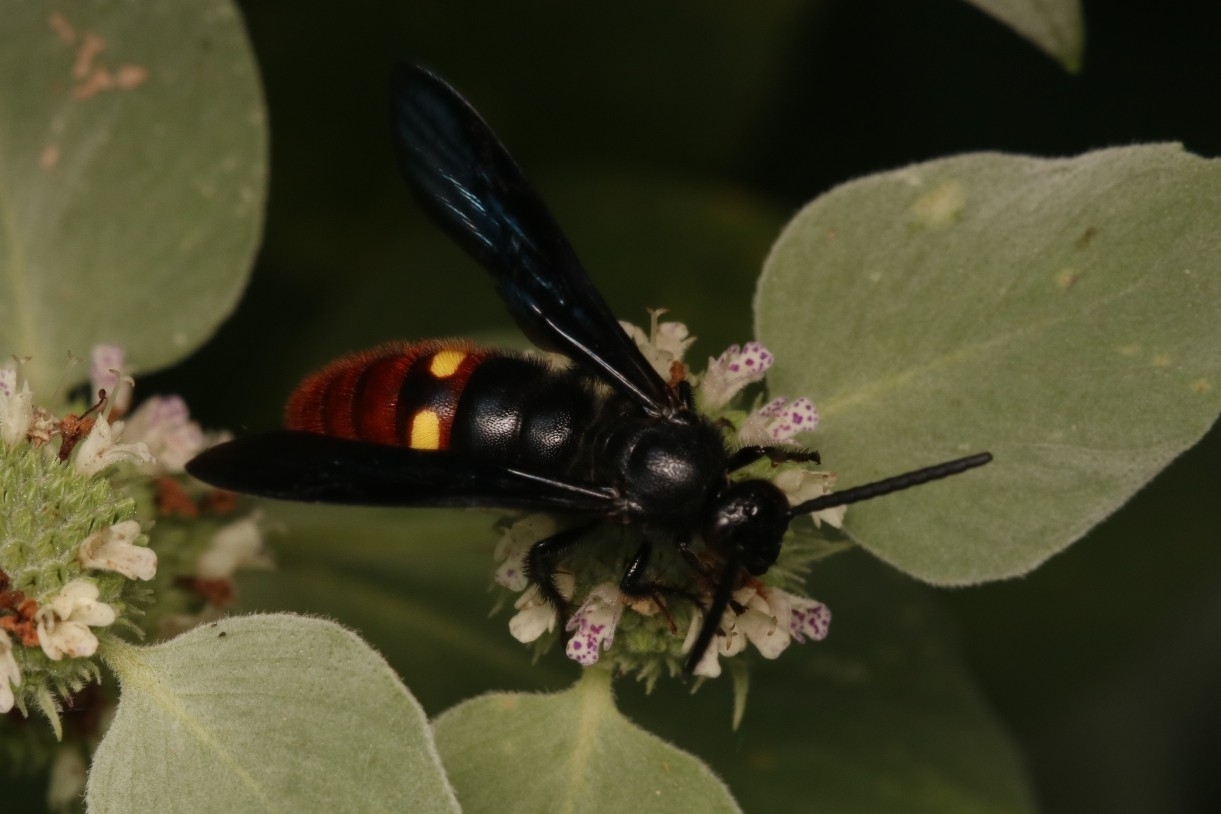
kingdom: Animalia
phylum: Arthropoda
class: Insecta
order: Hymenoptera
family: Scoliidae
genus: Scolia
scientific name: Scolia dubia
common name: Blue-winged scoliid wasp
